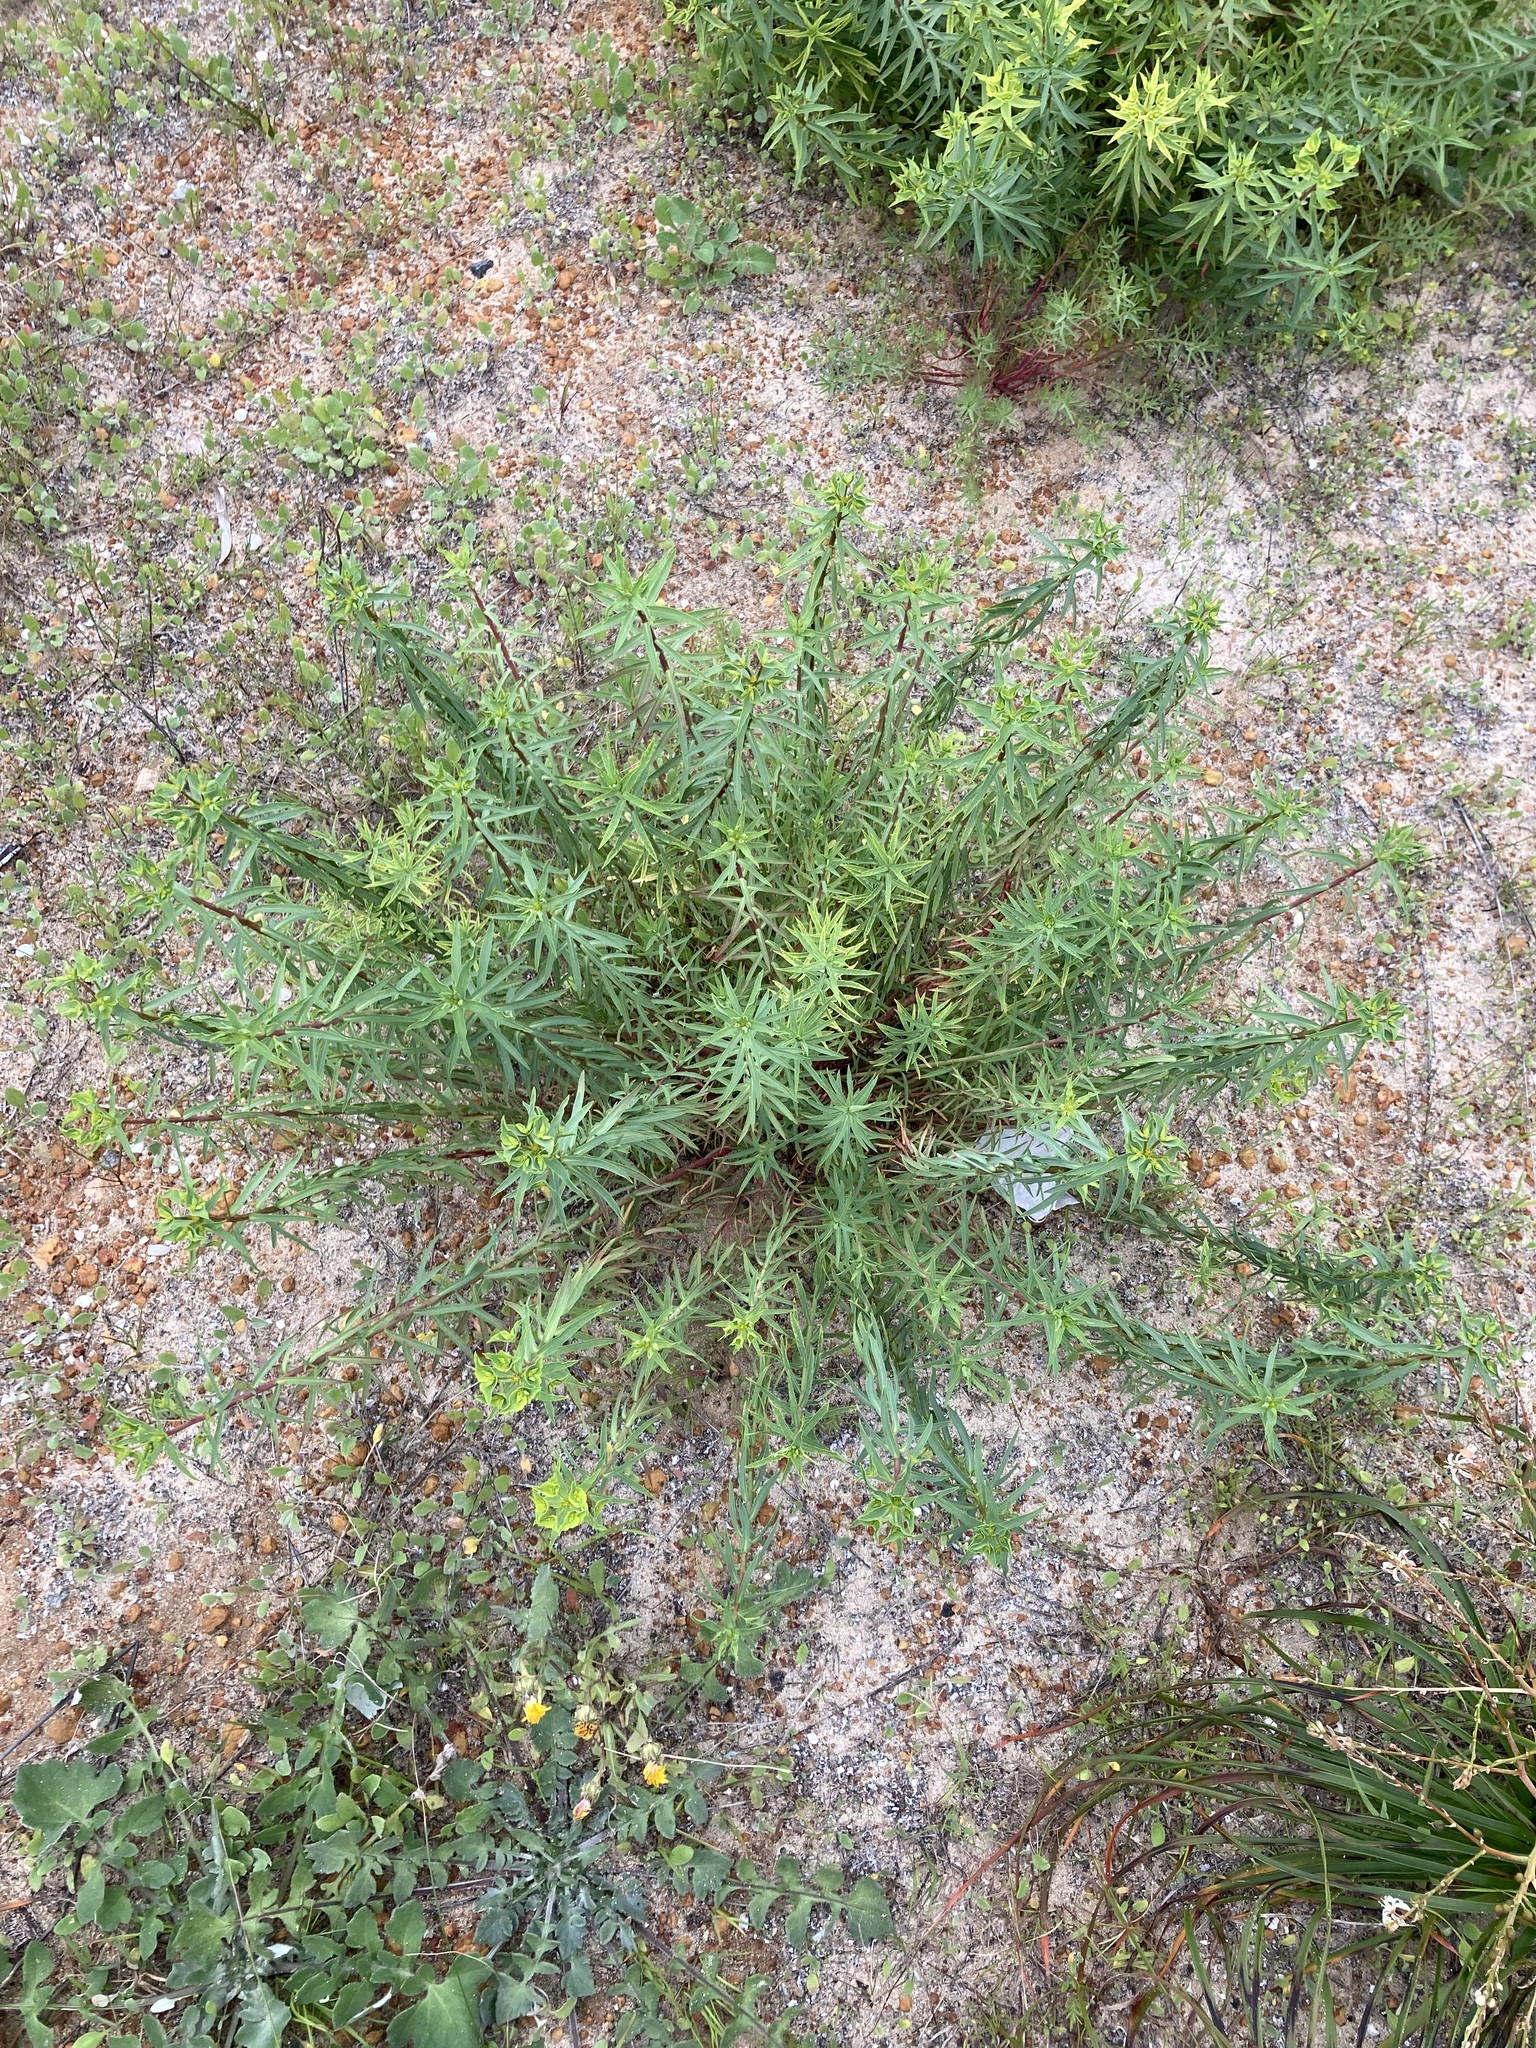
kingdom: Plantae
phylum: Tracheophyta
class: Magnoliopsida
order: Malpighiales
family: Euphorbiaceae
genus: Euphorbia
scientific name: Euphorbia terracina
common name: Geraldton carnation weed
